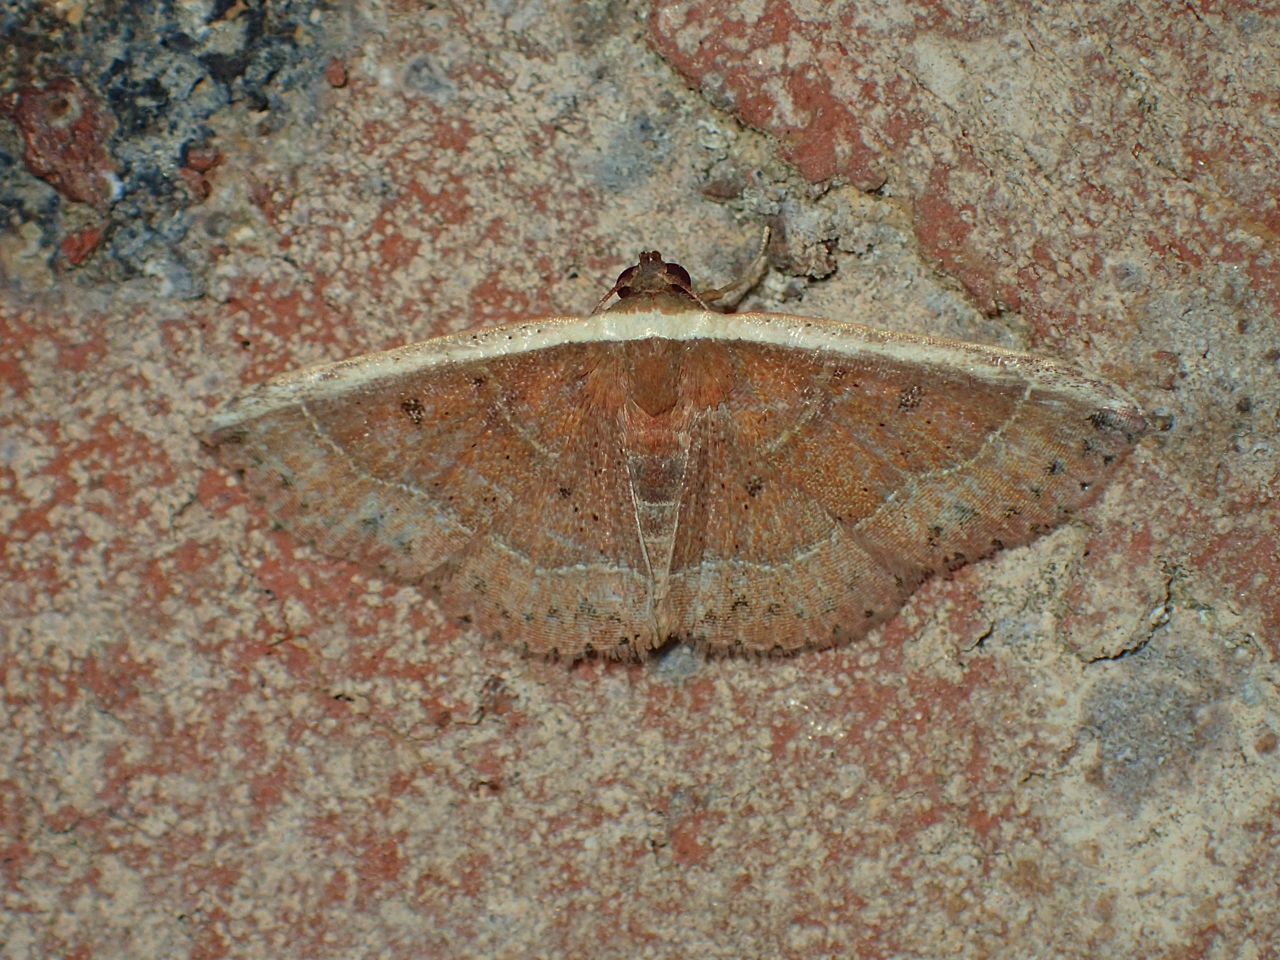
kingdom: Animalia
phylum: Arthropoda
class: Insecta
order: Lepidoptera
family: Noctuidae
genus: Ozarba
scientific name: Ozarba albocostaliata
